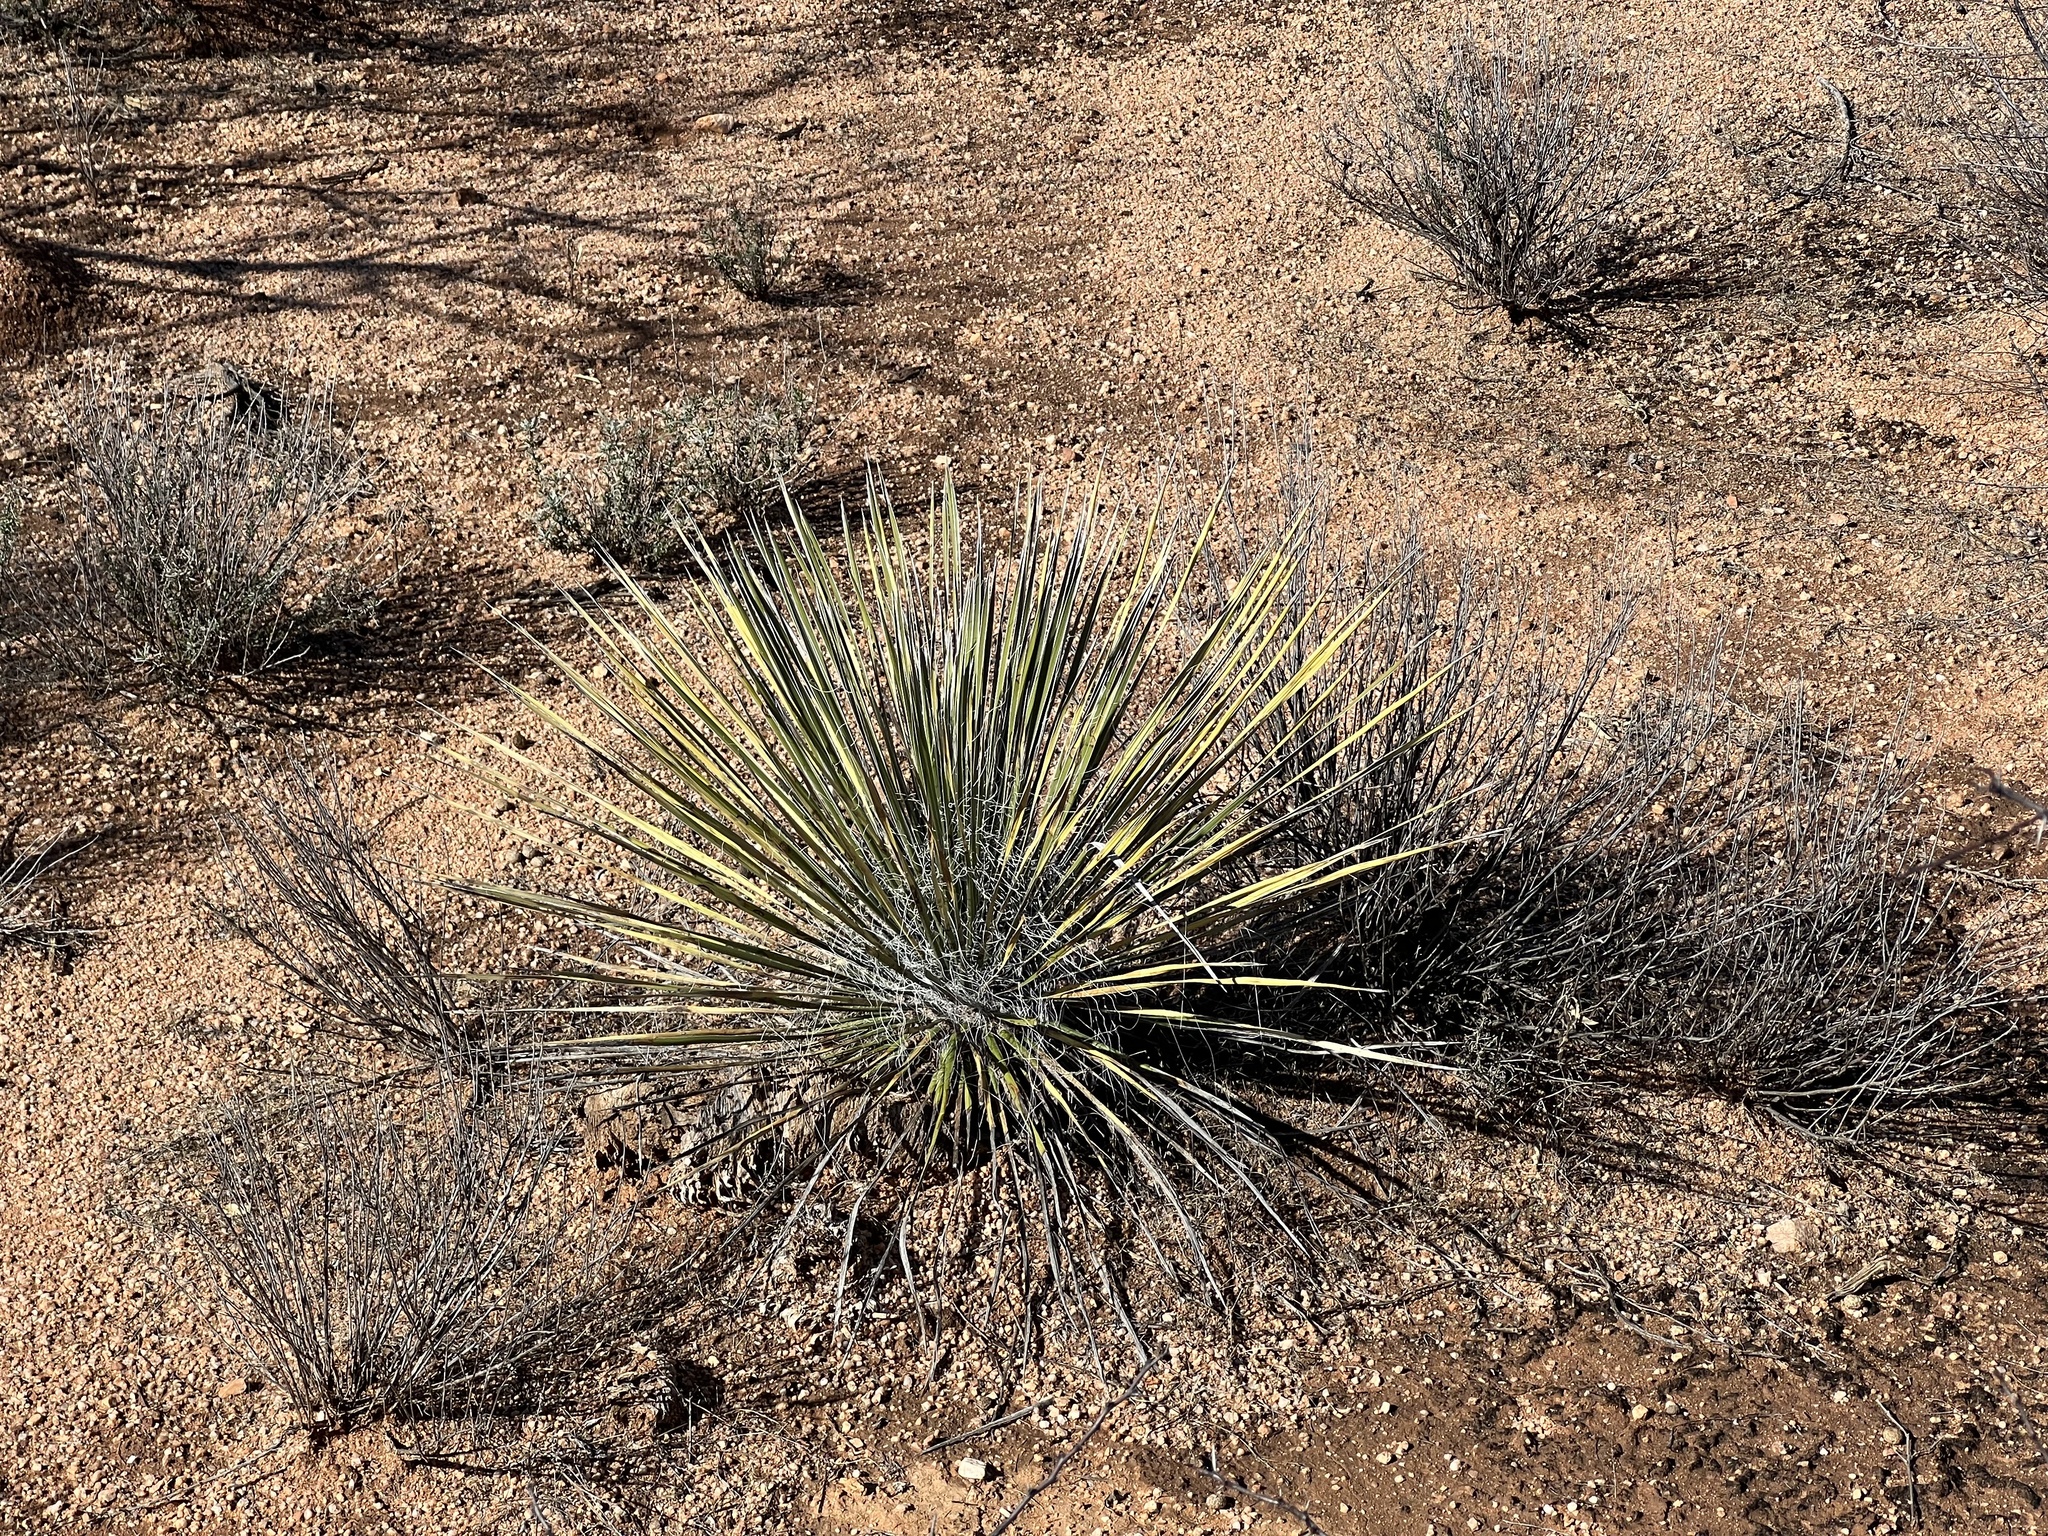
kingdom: Plantae
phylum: Tracheophyta
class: Liliopsida
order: Asparagales
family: Asparagaceae
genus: Yucca
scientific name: Yucca elata
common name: Palmella
